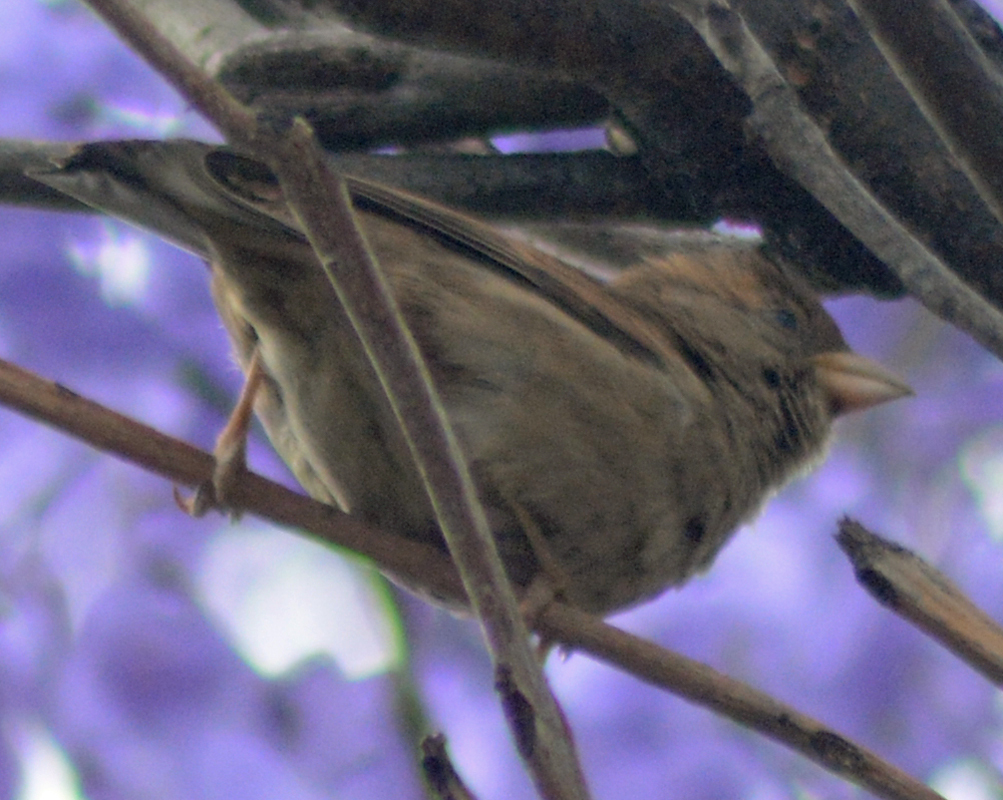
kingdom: Animalia
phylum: Chordata
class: Aves
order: Passeriformes
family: Passeridae
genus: Passer
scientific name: Passer domesticus
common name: House sparrow
